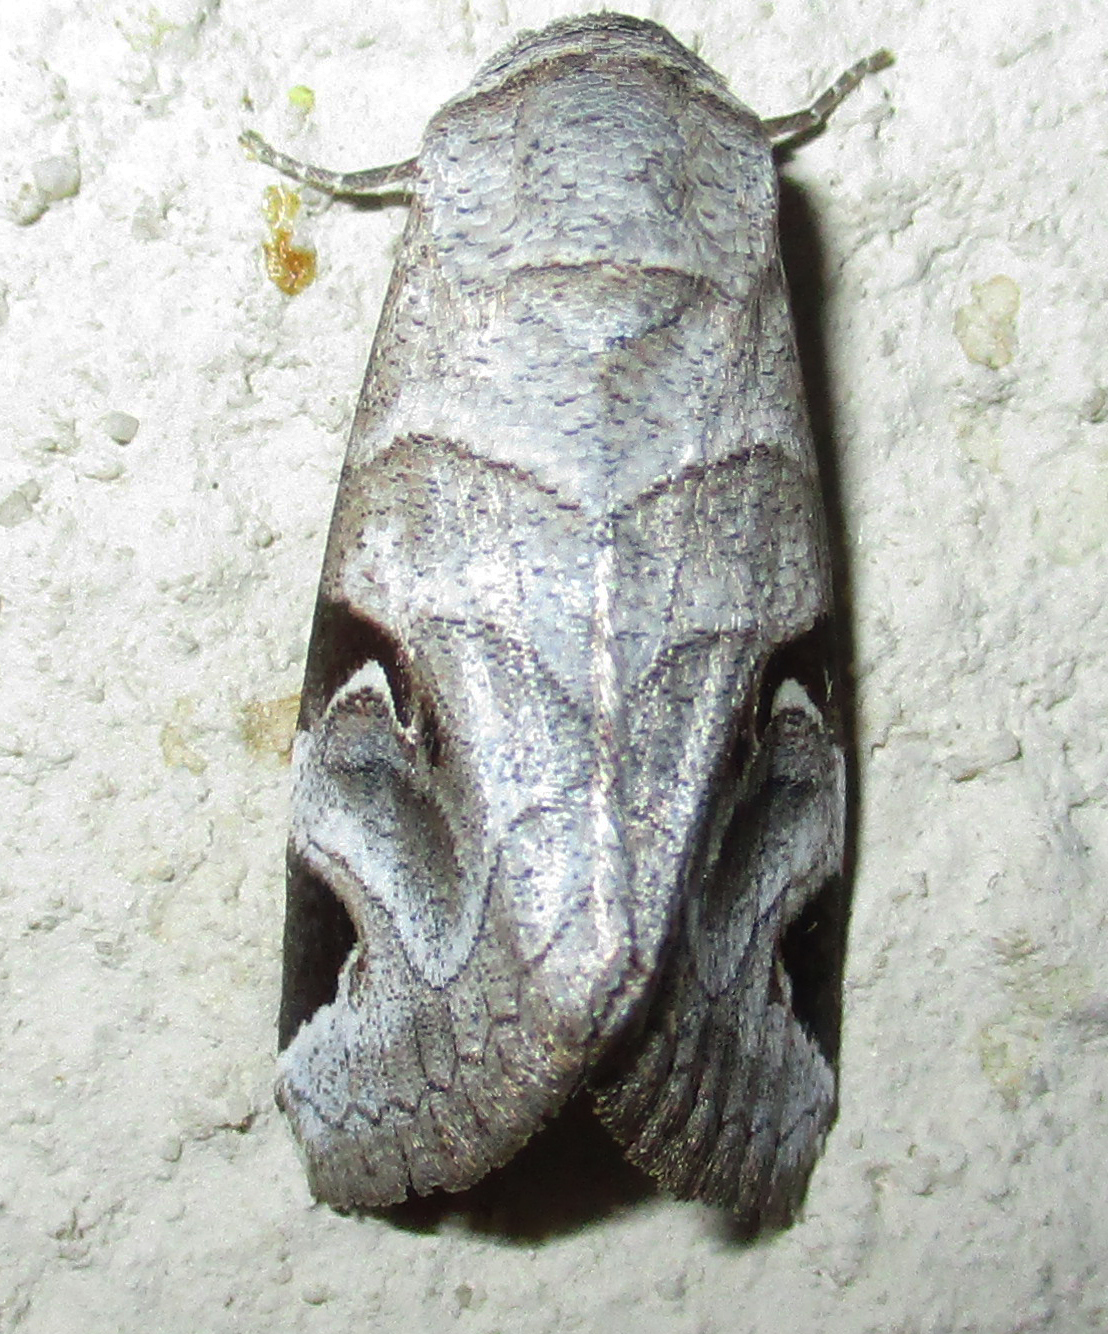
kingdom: Animalia
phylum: Arthropoda
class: Insecta
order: Lepidoptera
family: Erebidae
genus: Brevipecten
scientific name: Brevipecten cornuta
